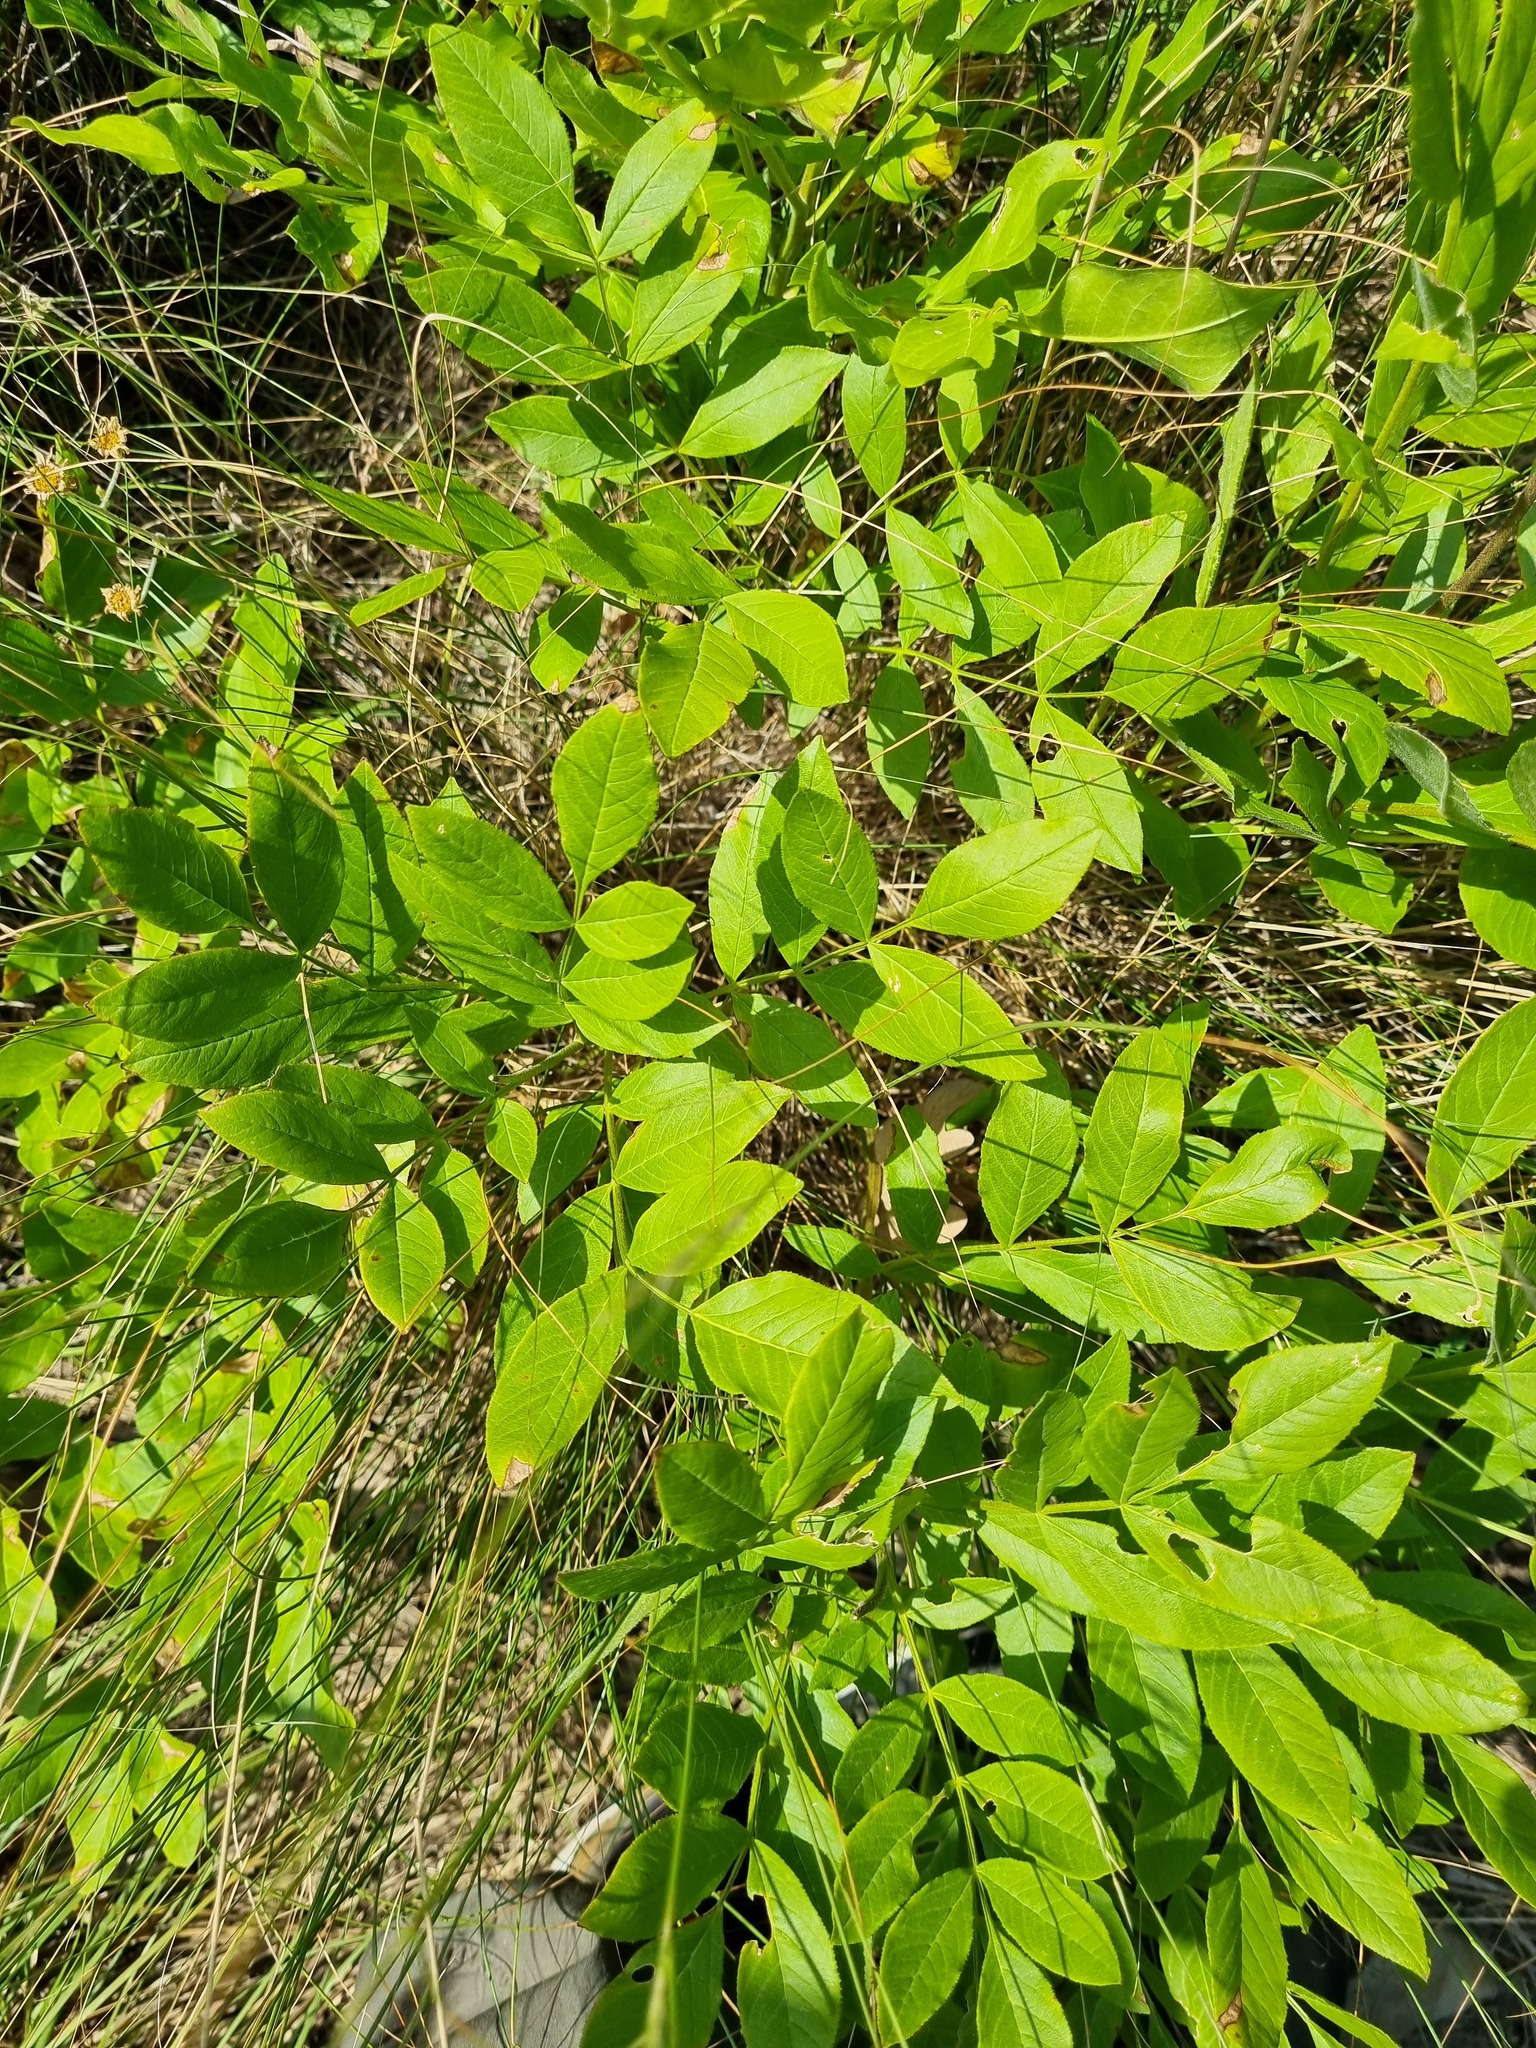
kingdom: Plantae
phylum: Tracheophyta
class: Magnoliopsida
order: Sapindales
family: Rutaceae
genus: Dictamnus
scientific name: Dictamnus albus
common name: Gasplant
